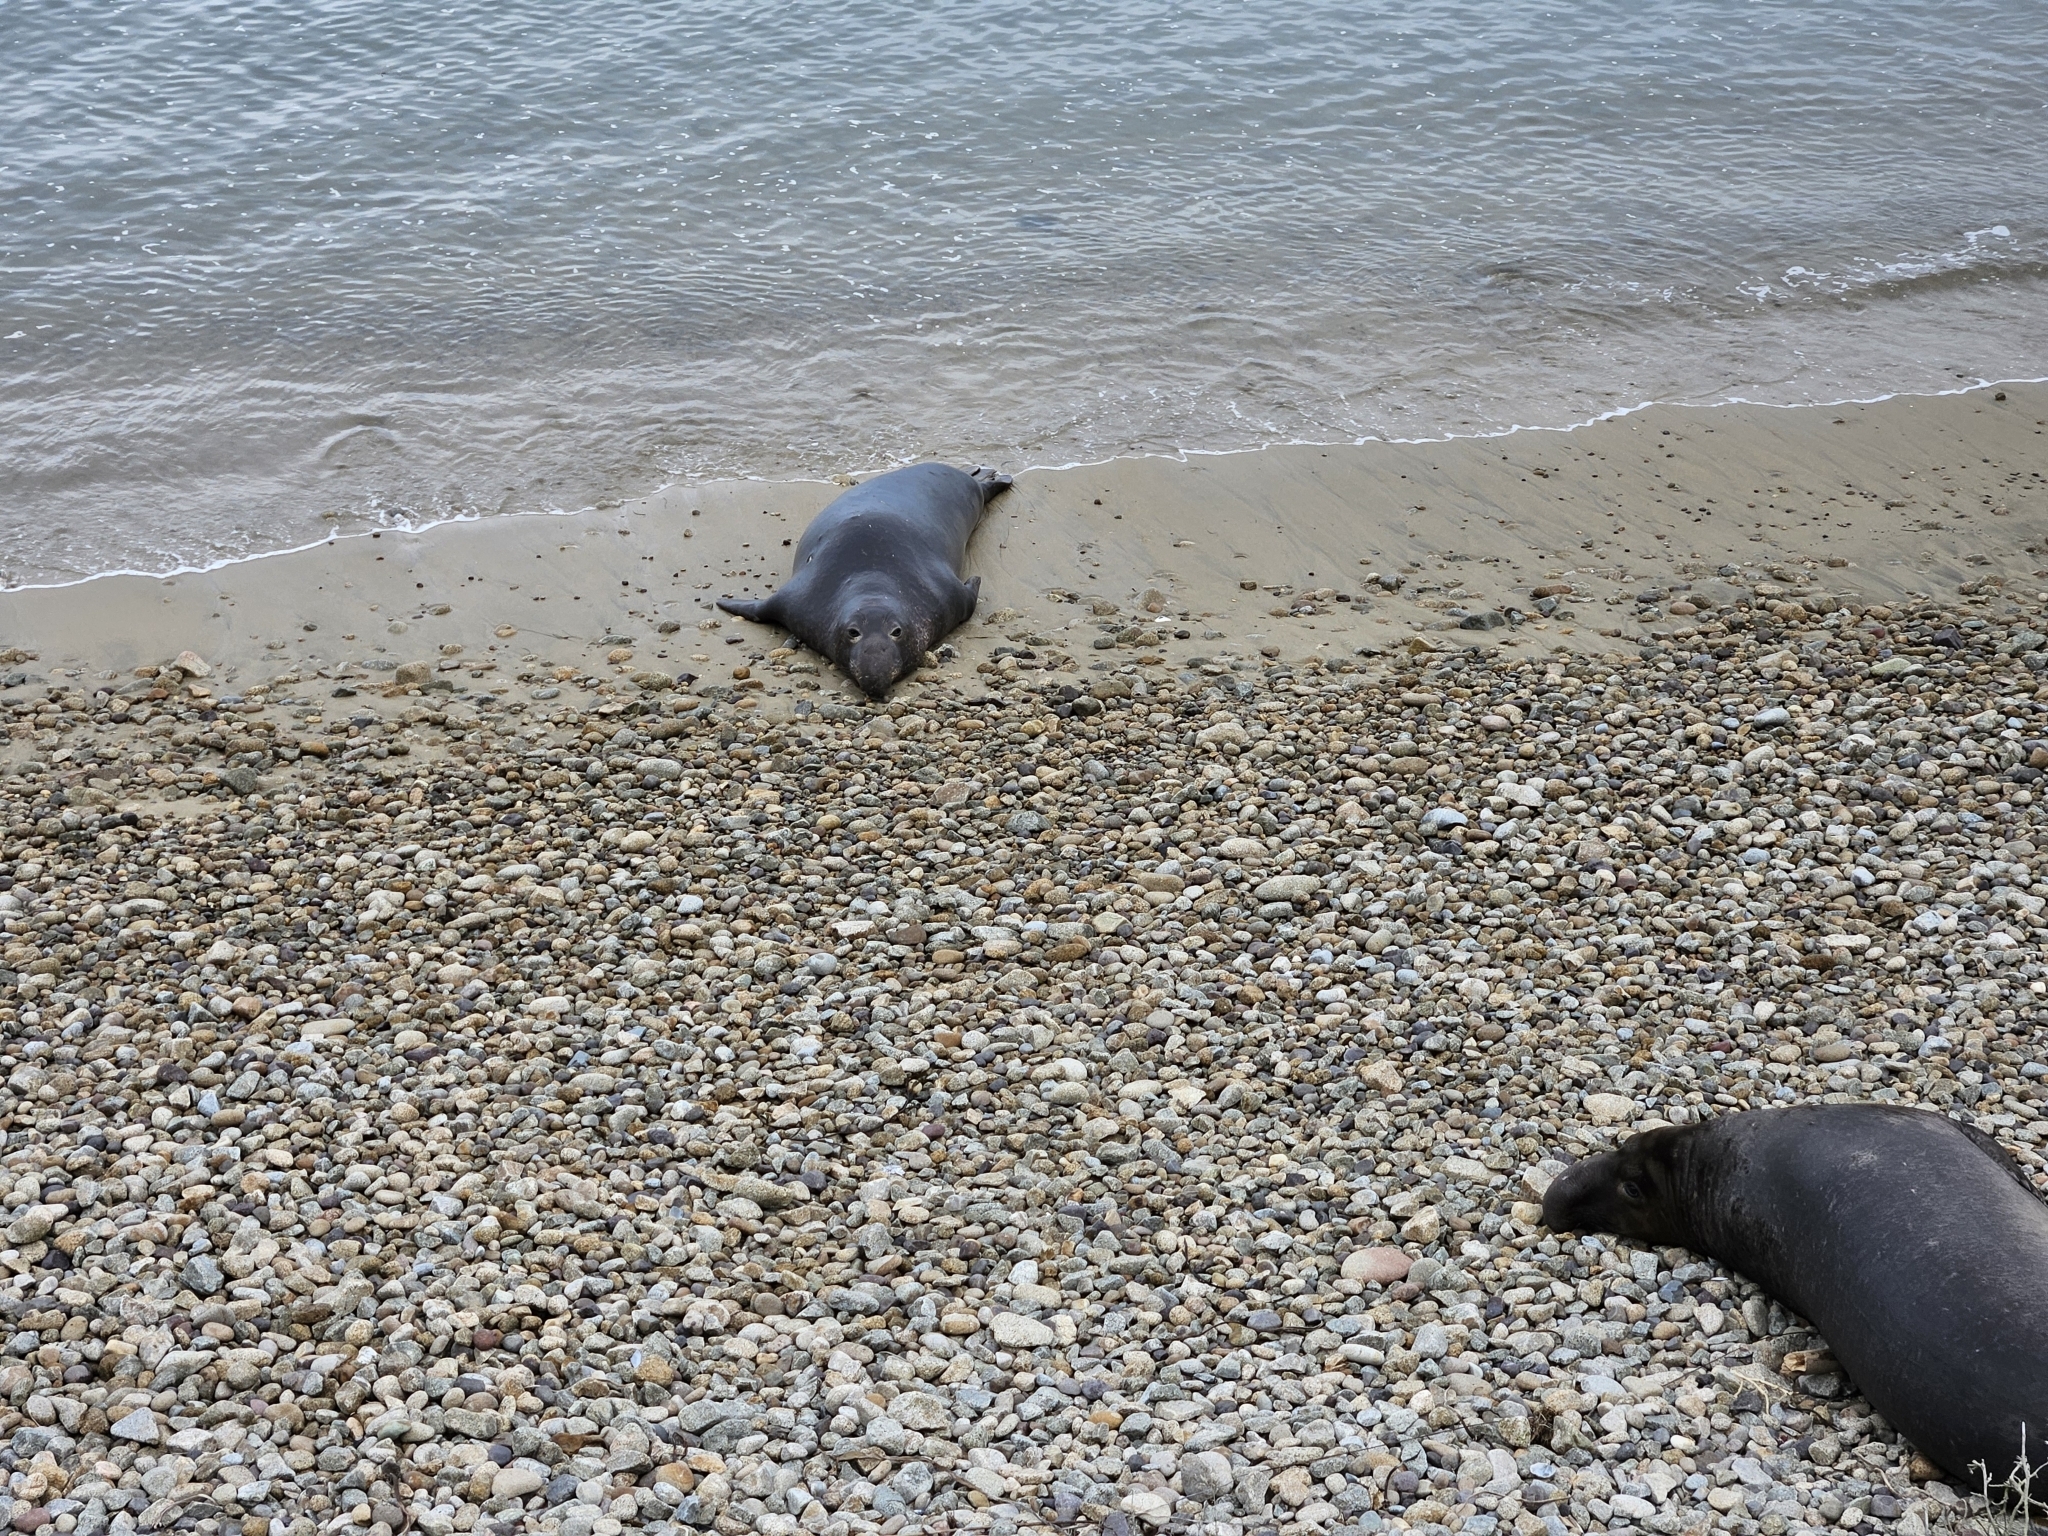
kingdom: Animalia
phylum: Chordata
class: Mammalia
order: Carnivora
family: Phocidae
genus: Mirounga
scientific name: Mirounga angustirostris
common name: Northern elephant seal
